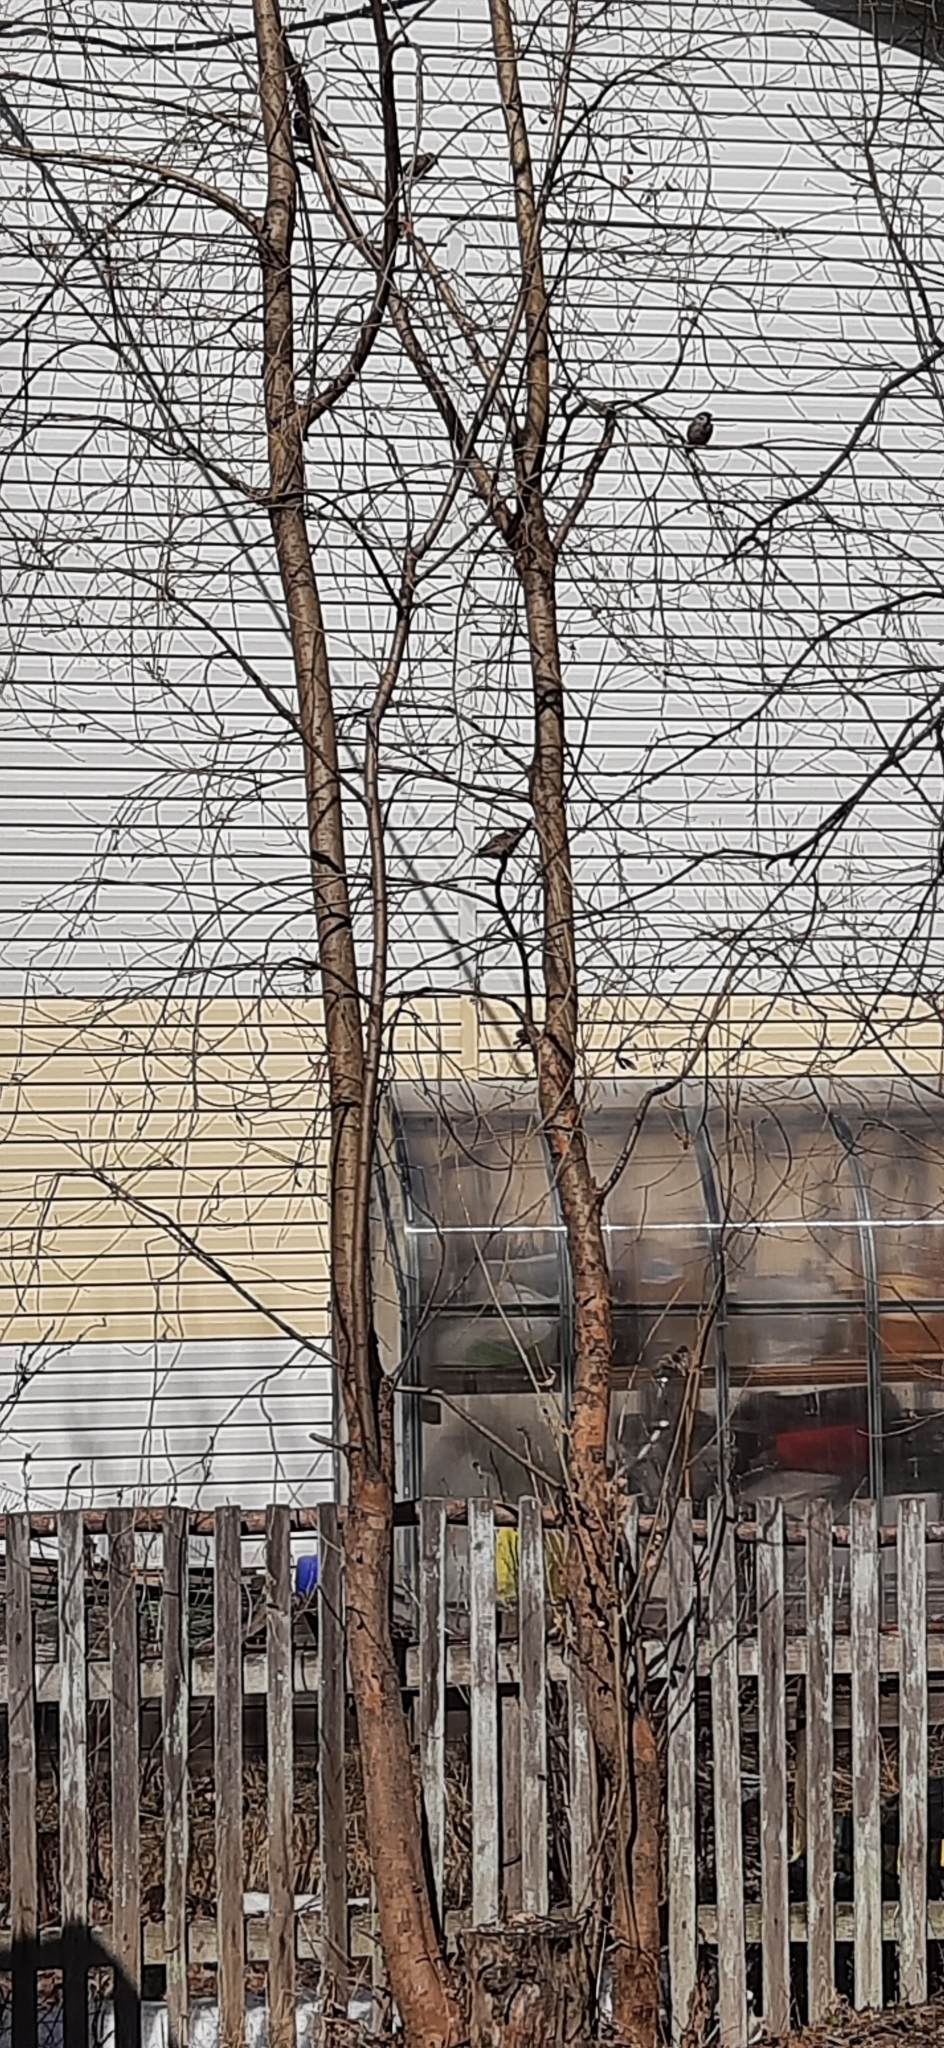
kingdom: Animalia
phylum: Chordata
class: Aves
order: Passeriformes
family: Passeridae
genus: Passer
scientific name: Passer montanus
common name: Eurasian tree sparrow
